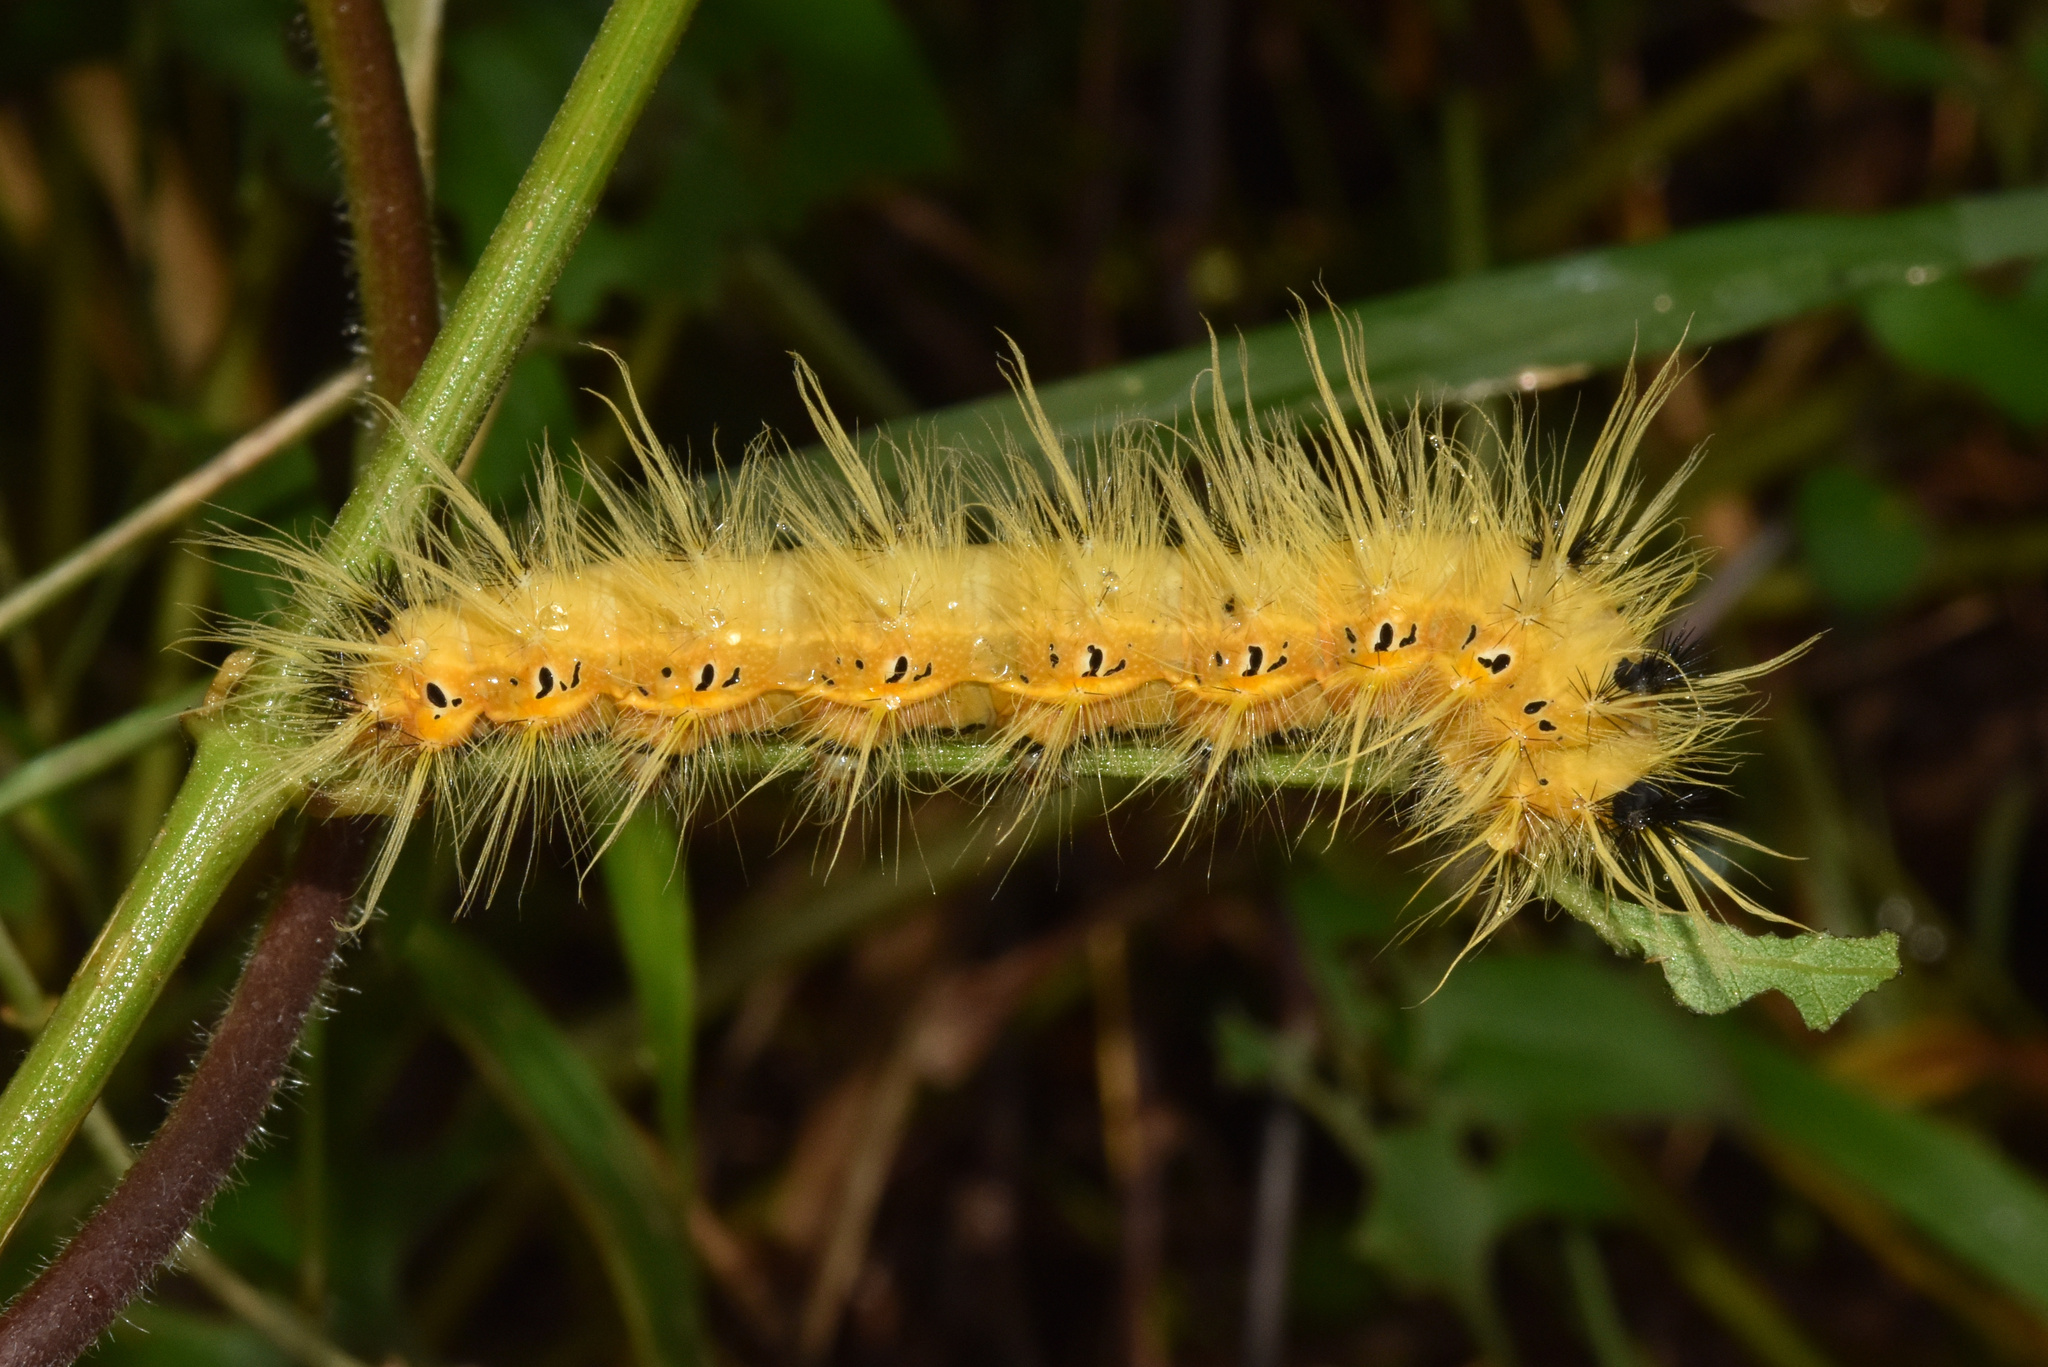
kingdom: Animalia
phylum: Arthropoda
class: Insecta
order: Lepidoptera
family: Saturniidae
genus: Ludia
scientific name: Ludia delegorguei
